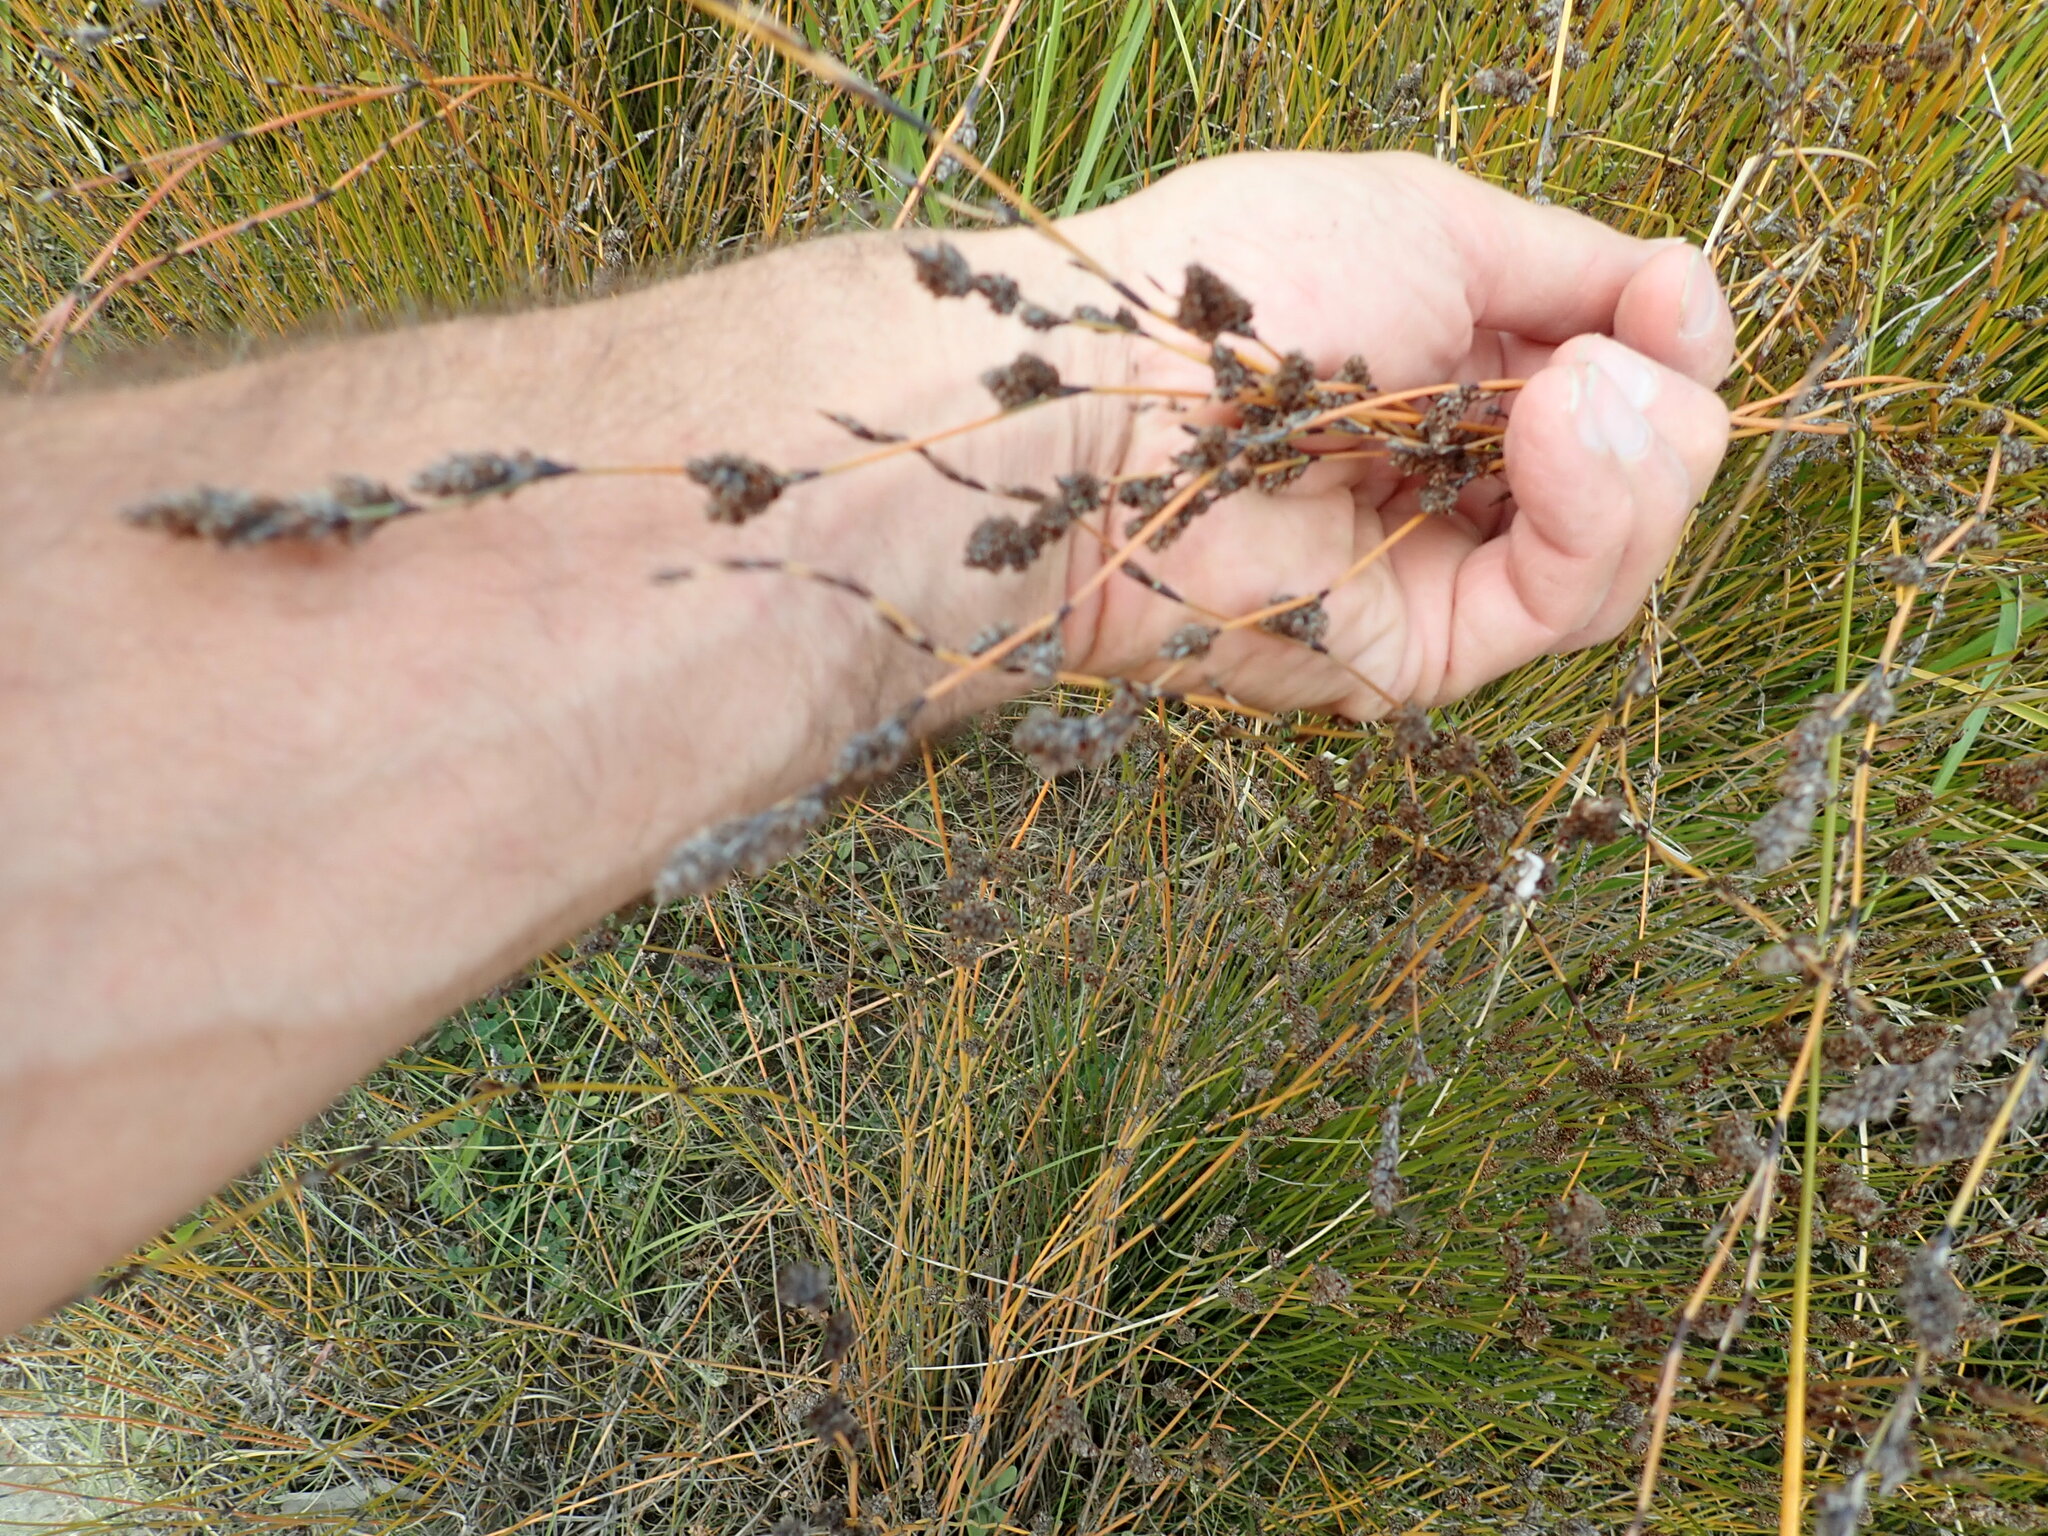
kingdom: Plantae
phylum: Tracheophyta
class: Liliopsida
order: Poales
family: Restionaceae
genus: Apodasmia
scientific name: Apodasmia similis
